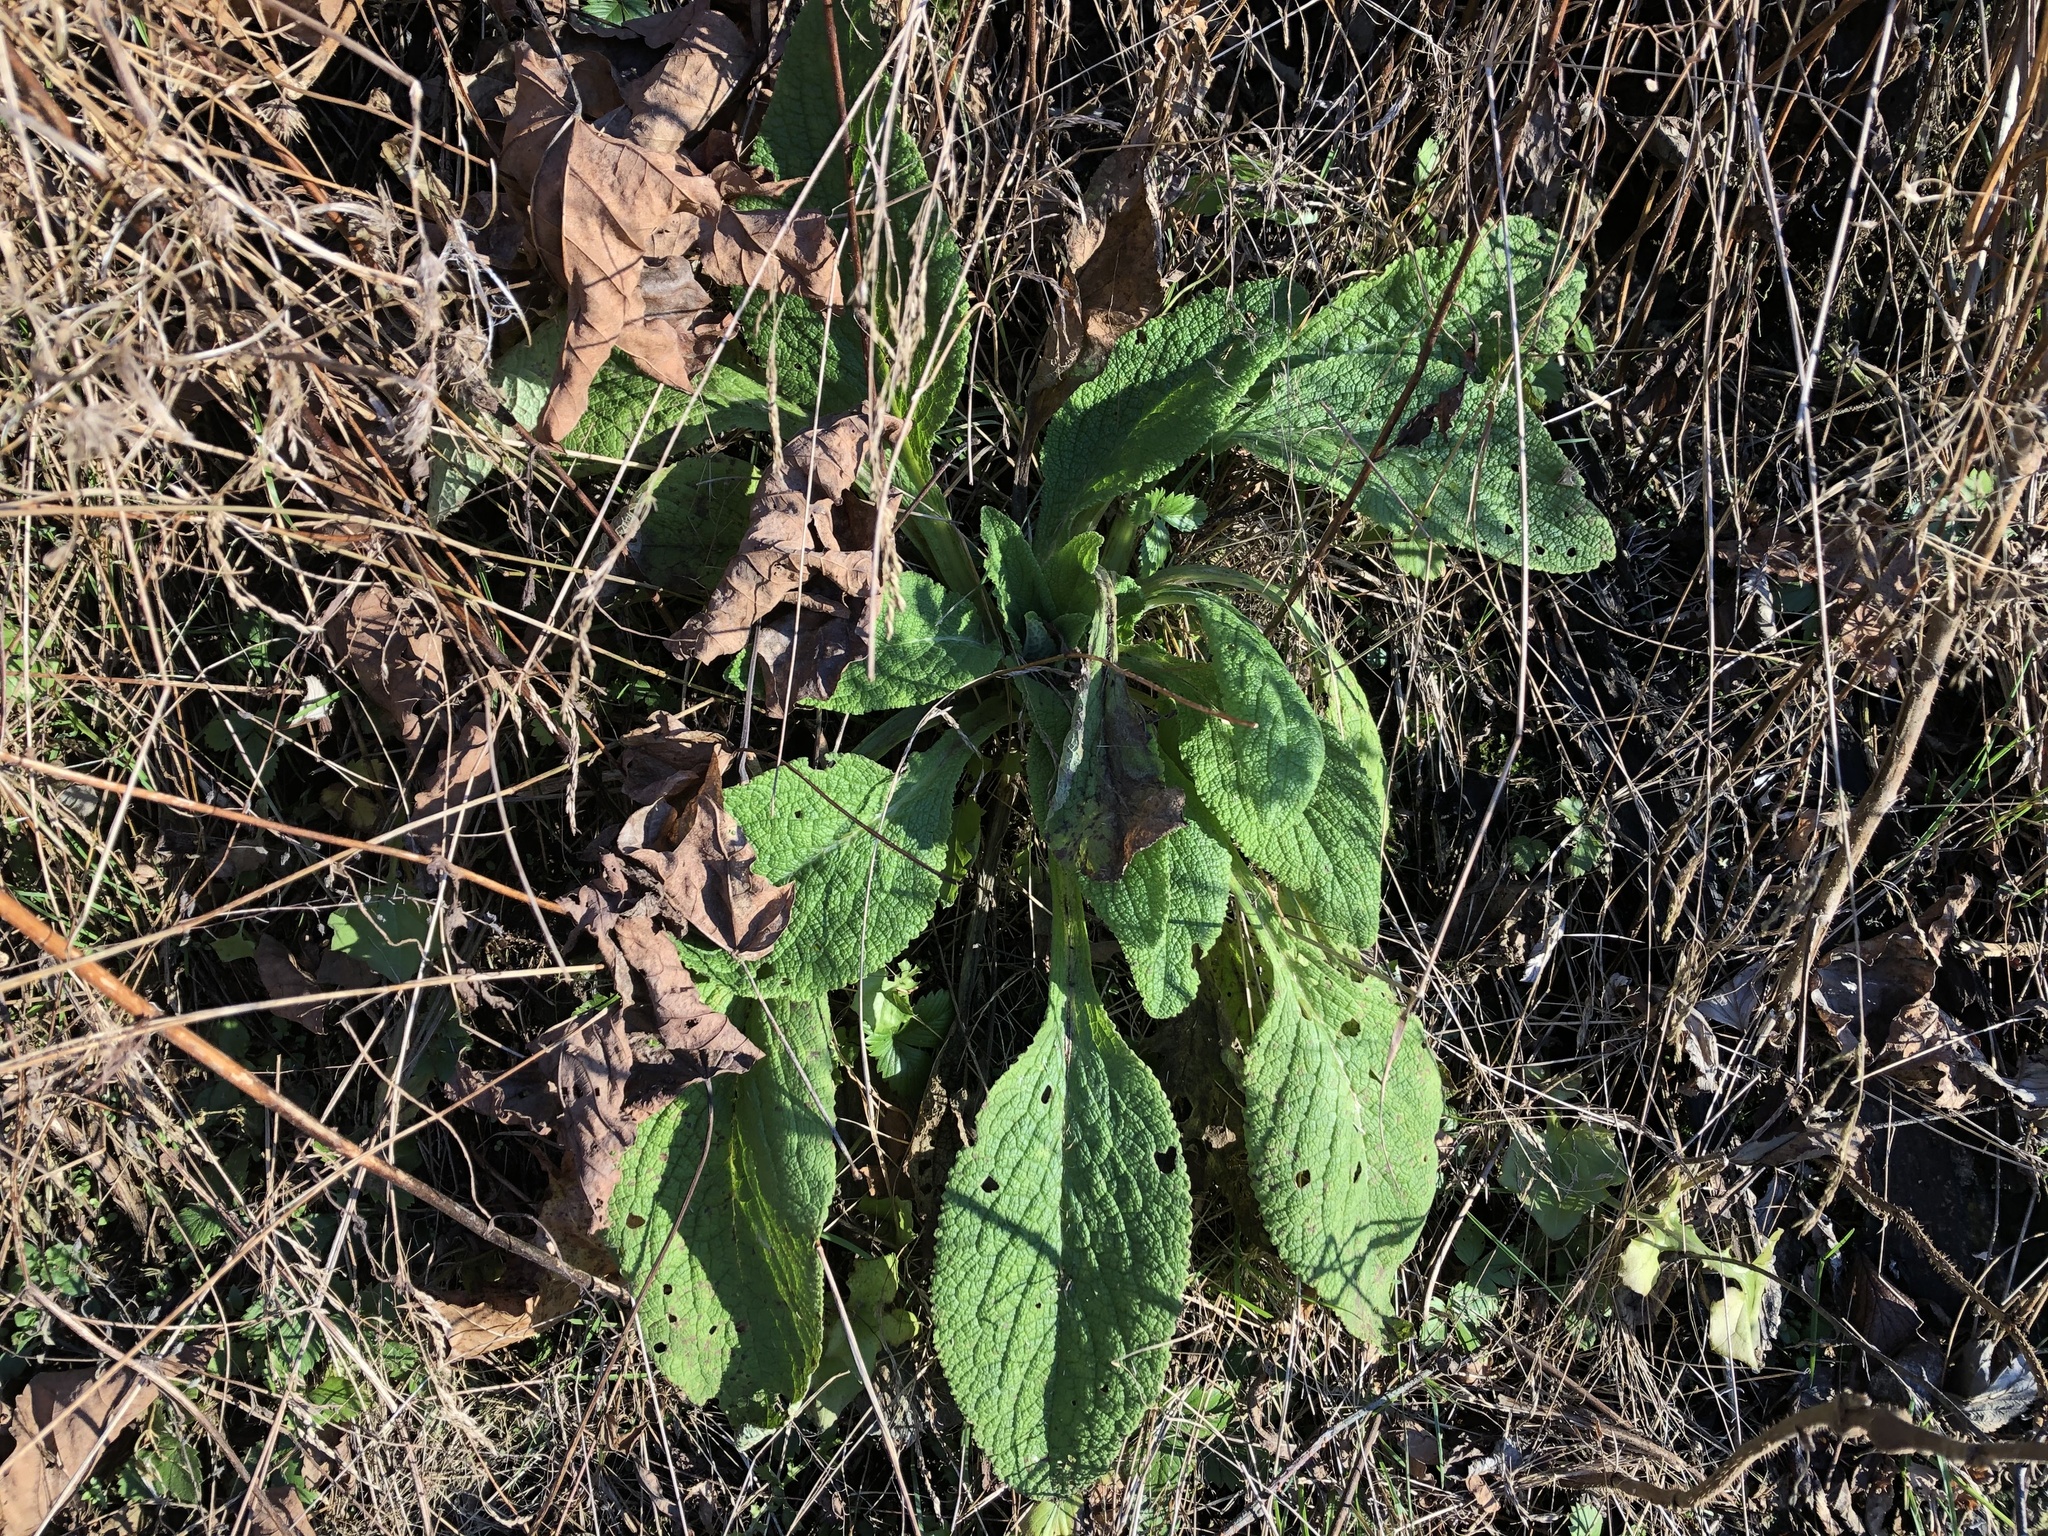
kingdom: Plantae
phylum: Tracheophyta
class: Magnoliopsida
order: Lamiales
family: Plantaginaceae
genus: Digitalis
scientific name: Digitalis purpurea
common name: Foxglove
